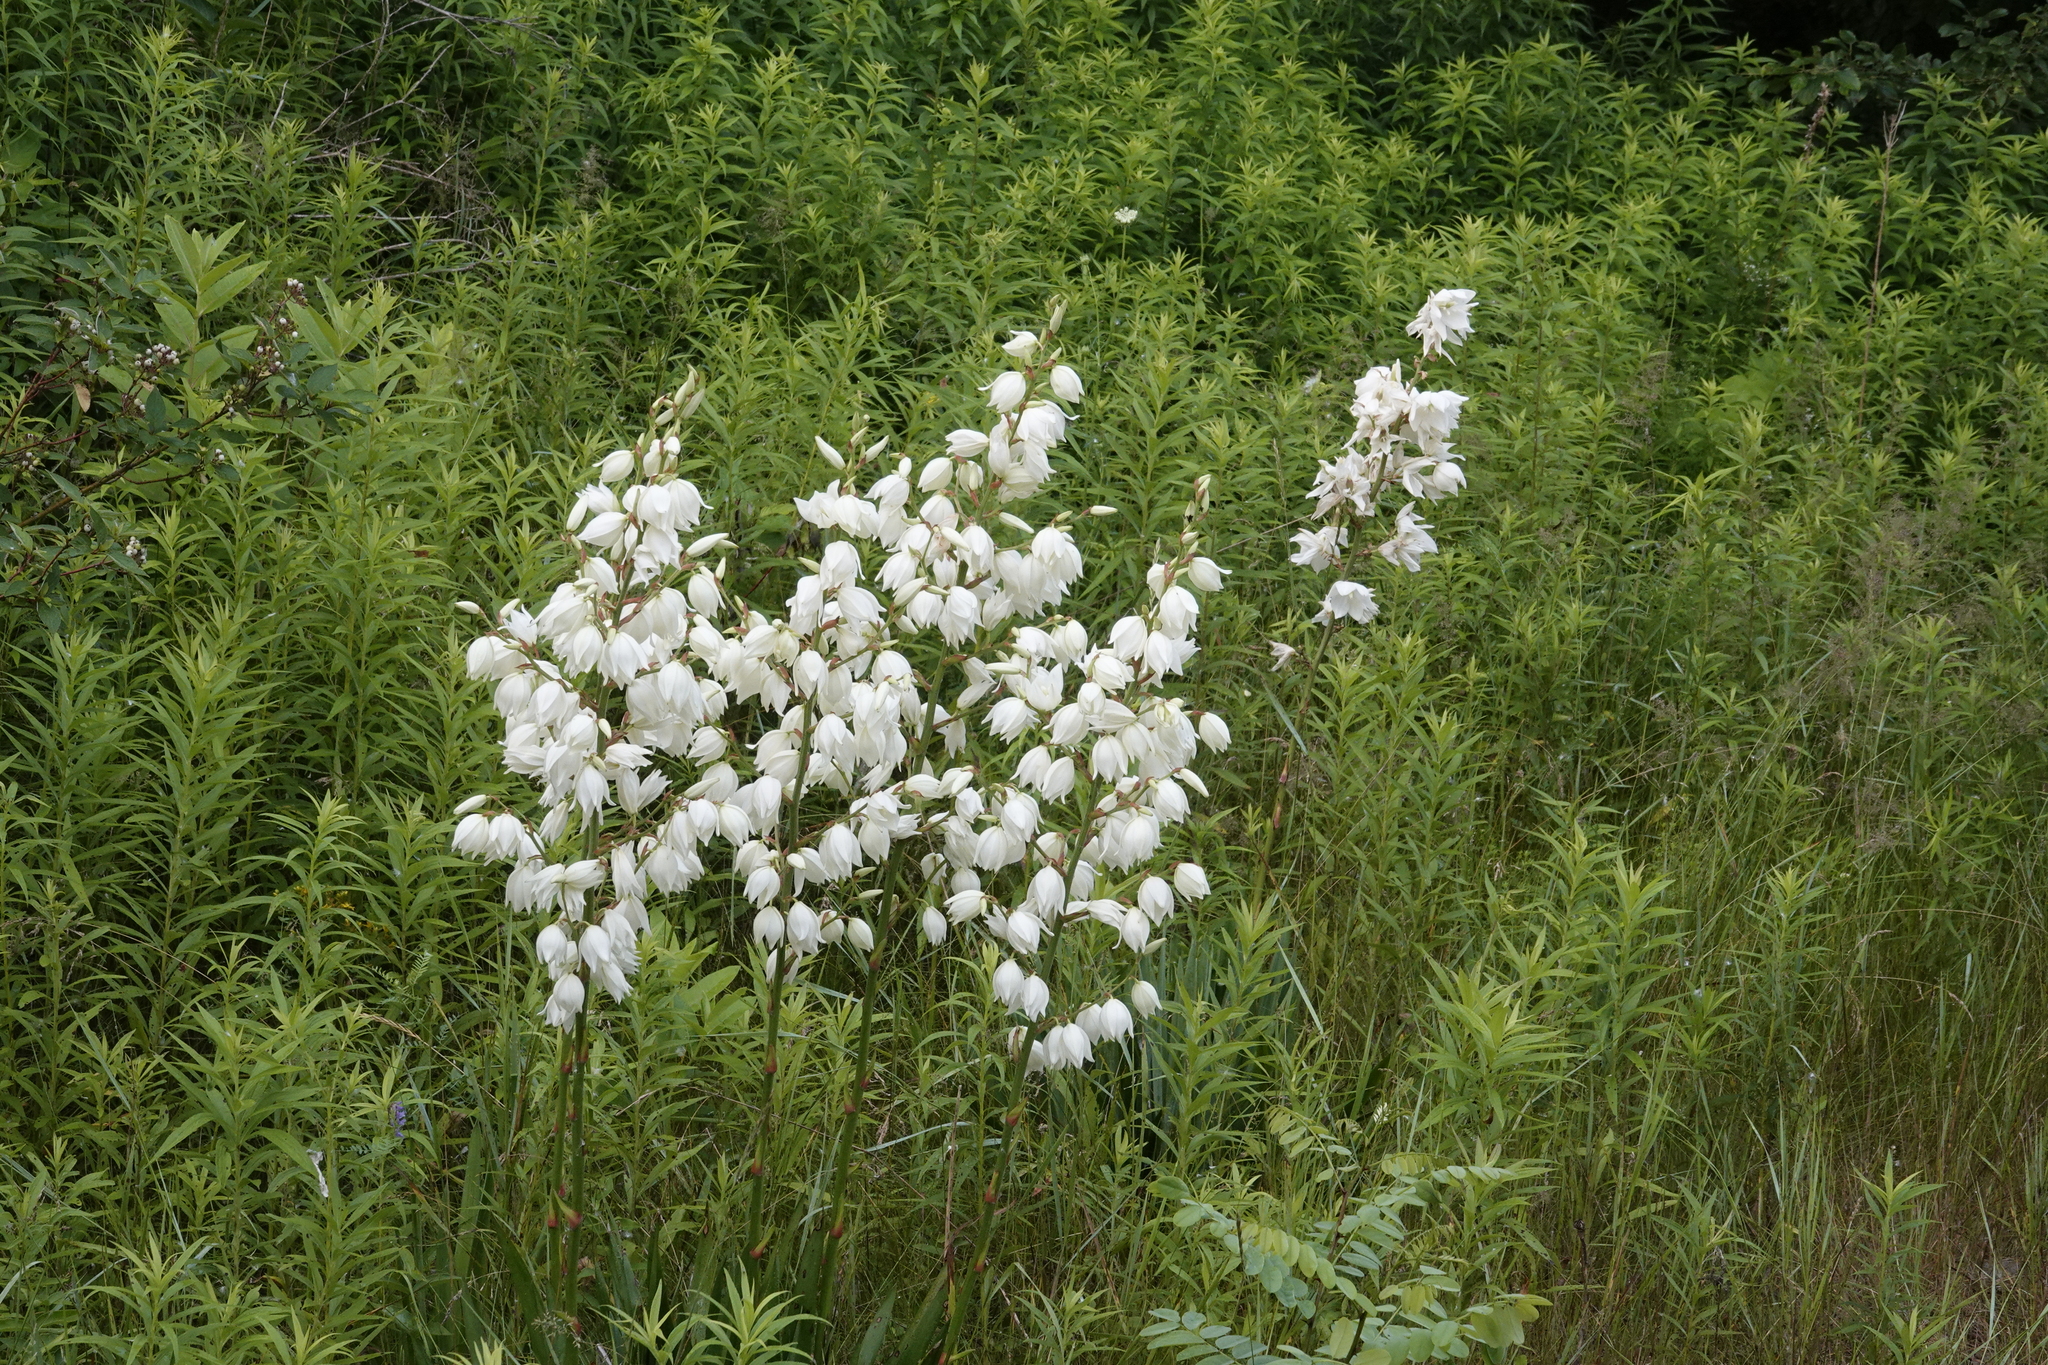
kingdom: Plantae
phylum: Tracheophyta
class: Liliopsida
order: Asparagales
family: Asparagaceae
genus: Yucca
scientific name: Yucca flaccida
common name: Adam's-needle
